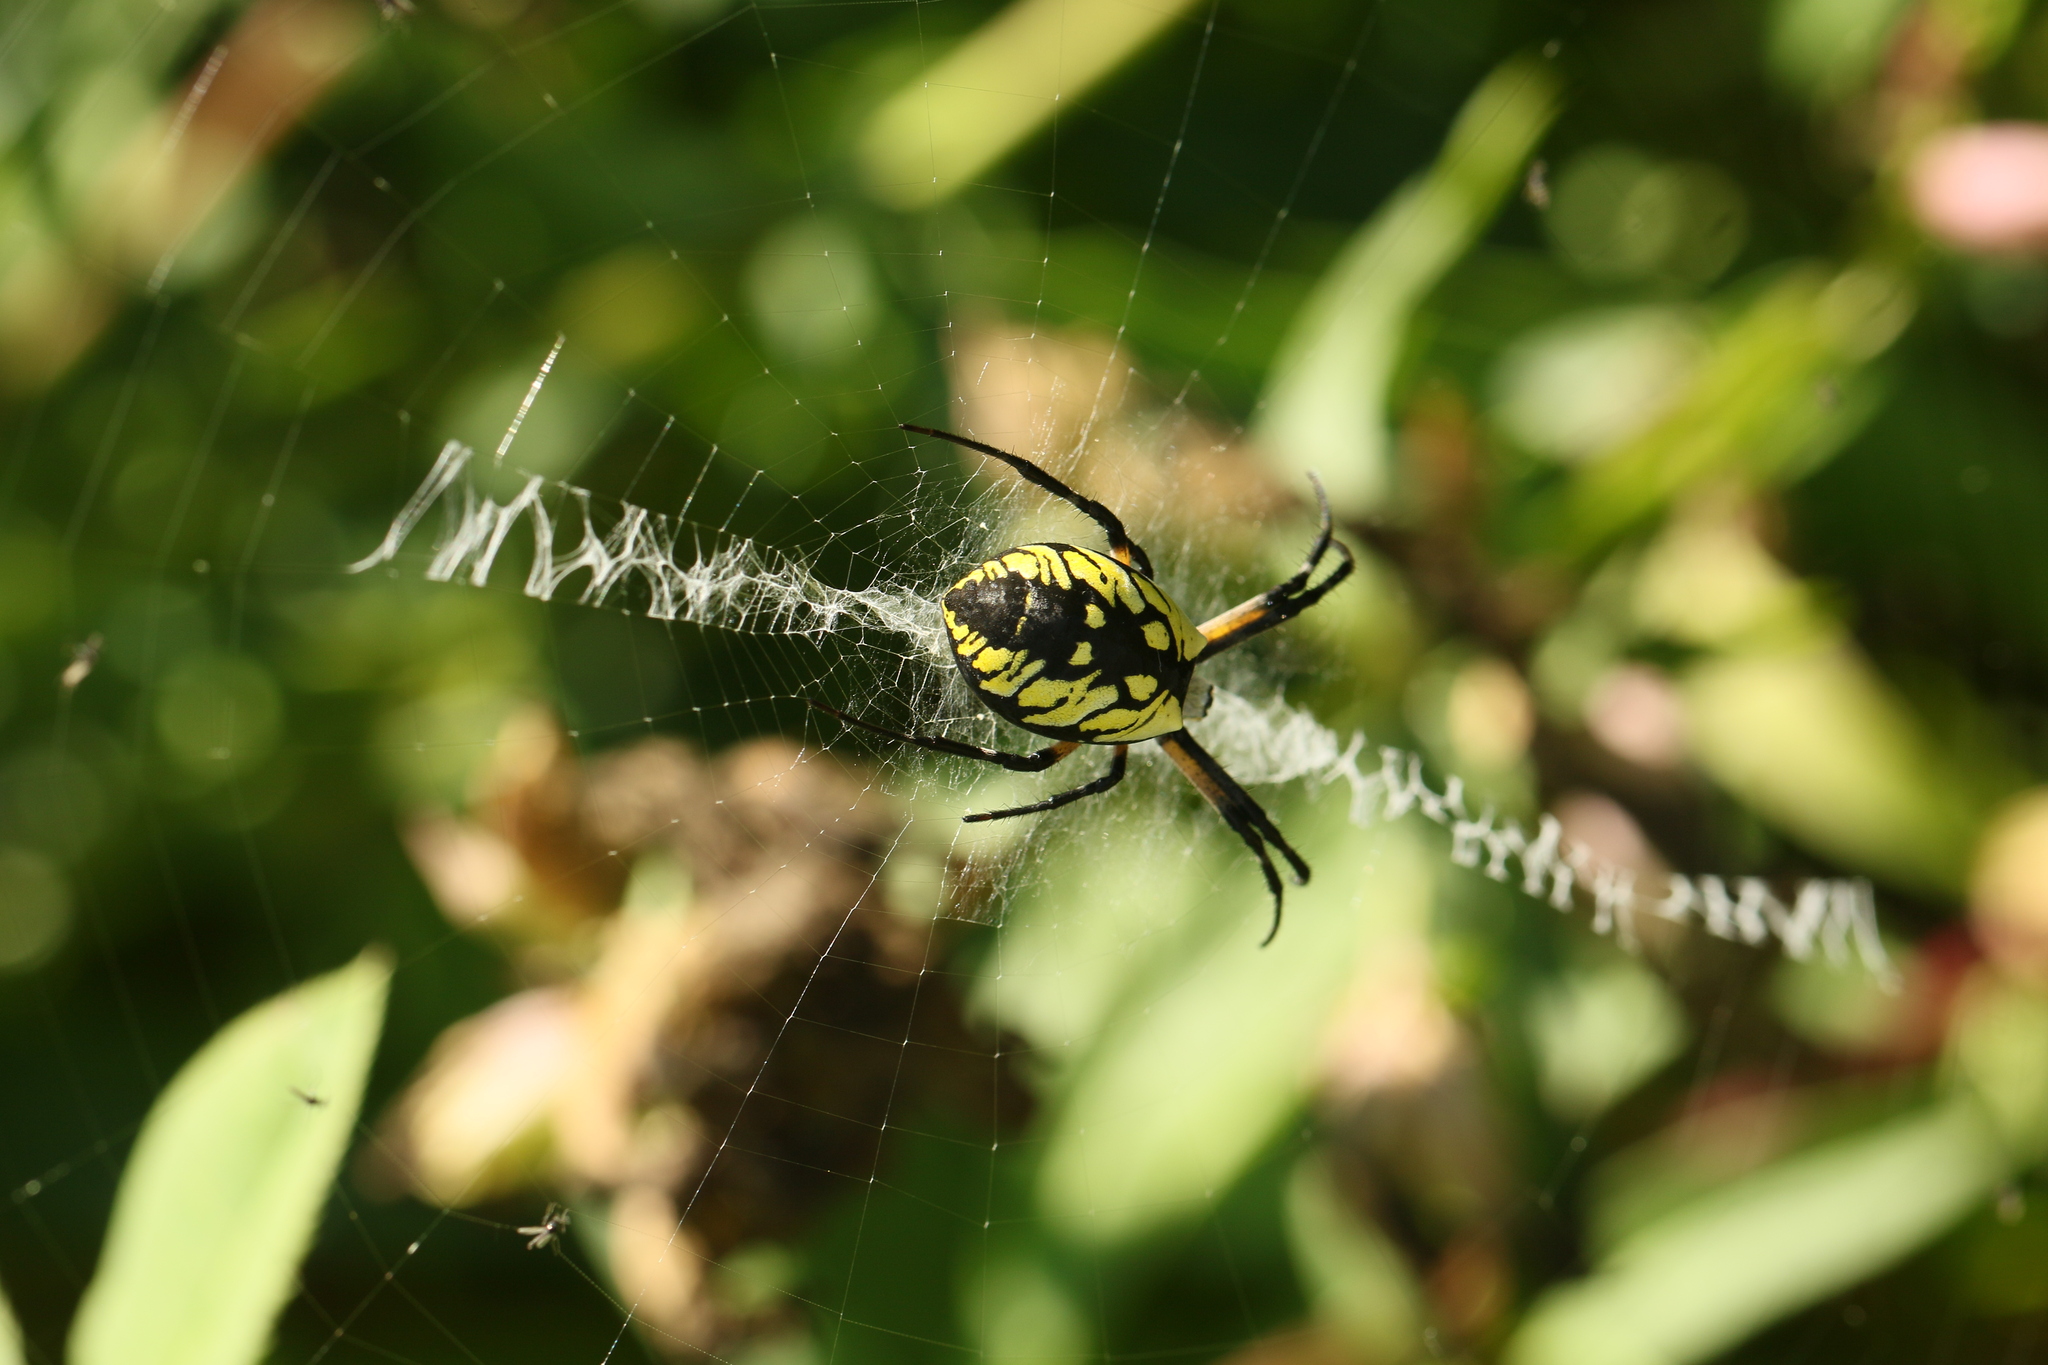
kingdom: Animalia
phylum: Arthropoda
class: Arachnida
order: Araneae
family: Araneidae
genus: Argiope
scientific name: Argiope aurantia
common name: Orb weavers
